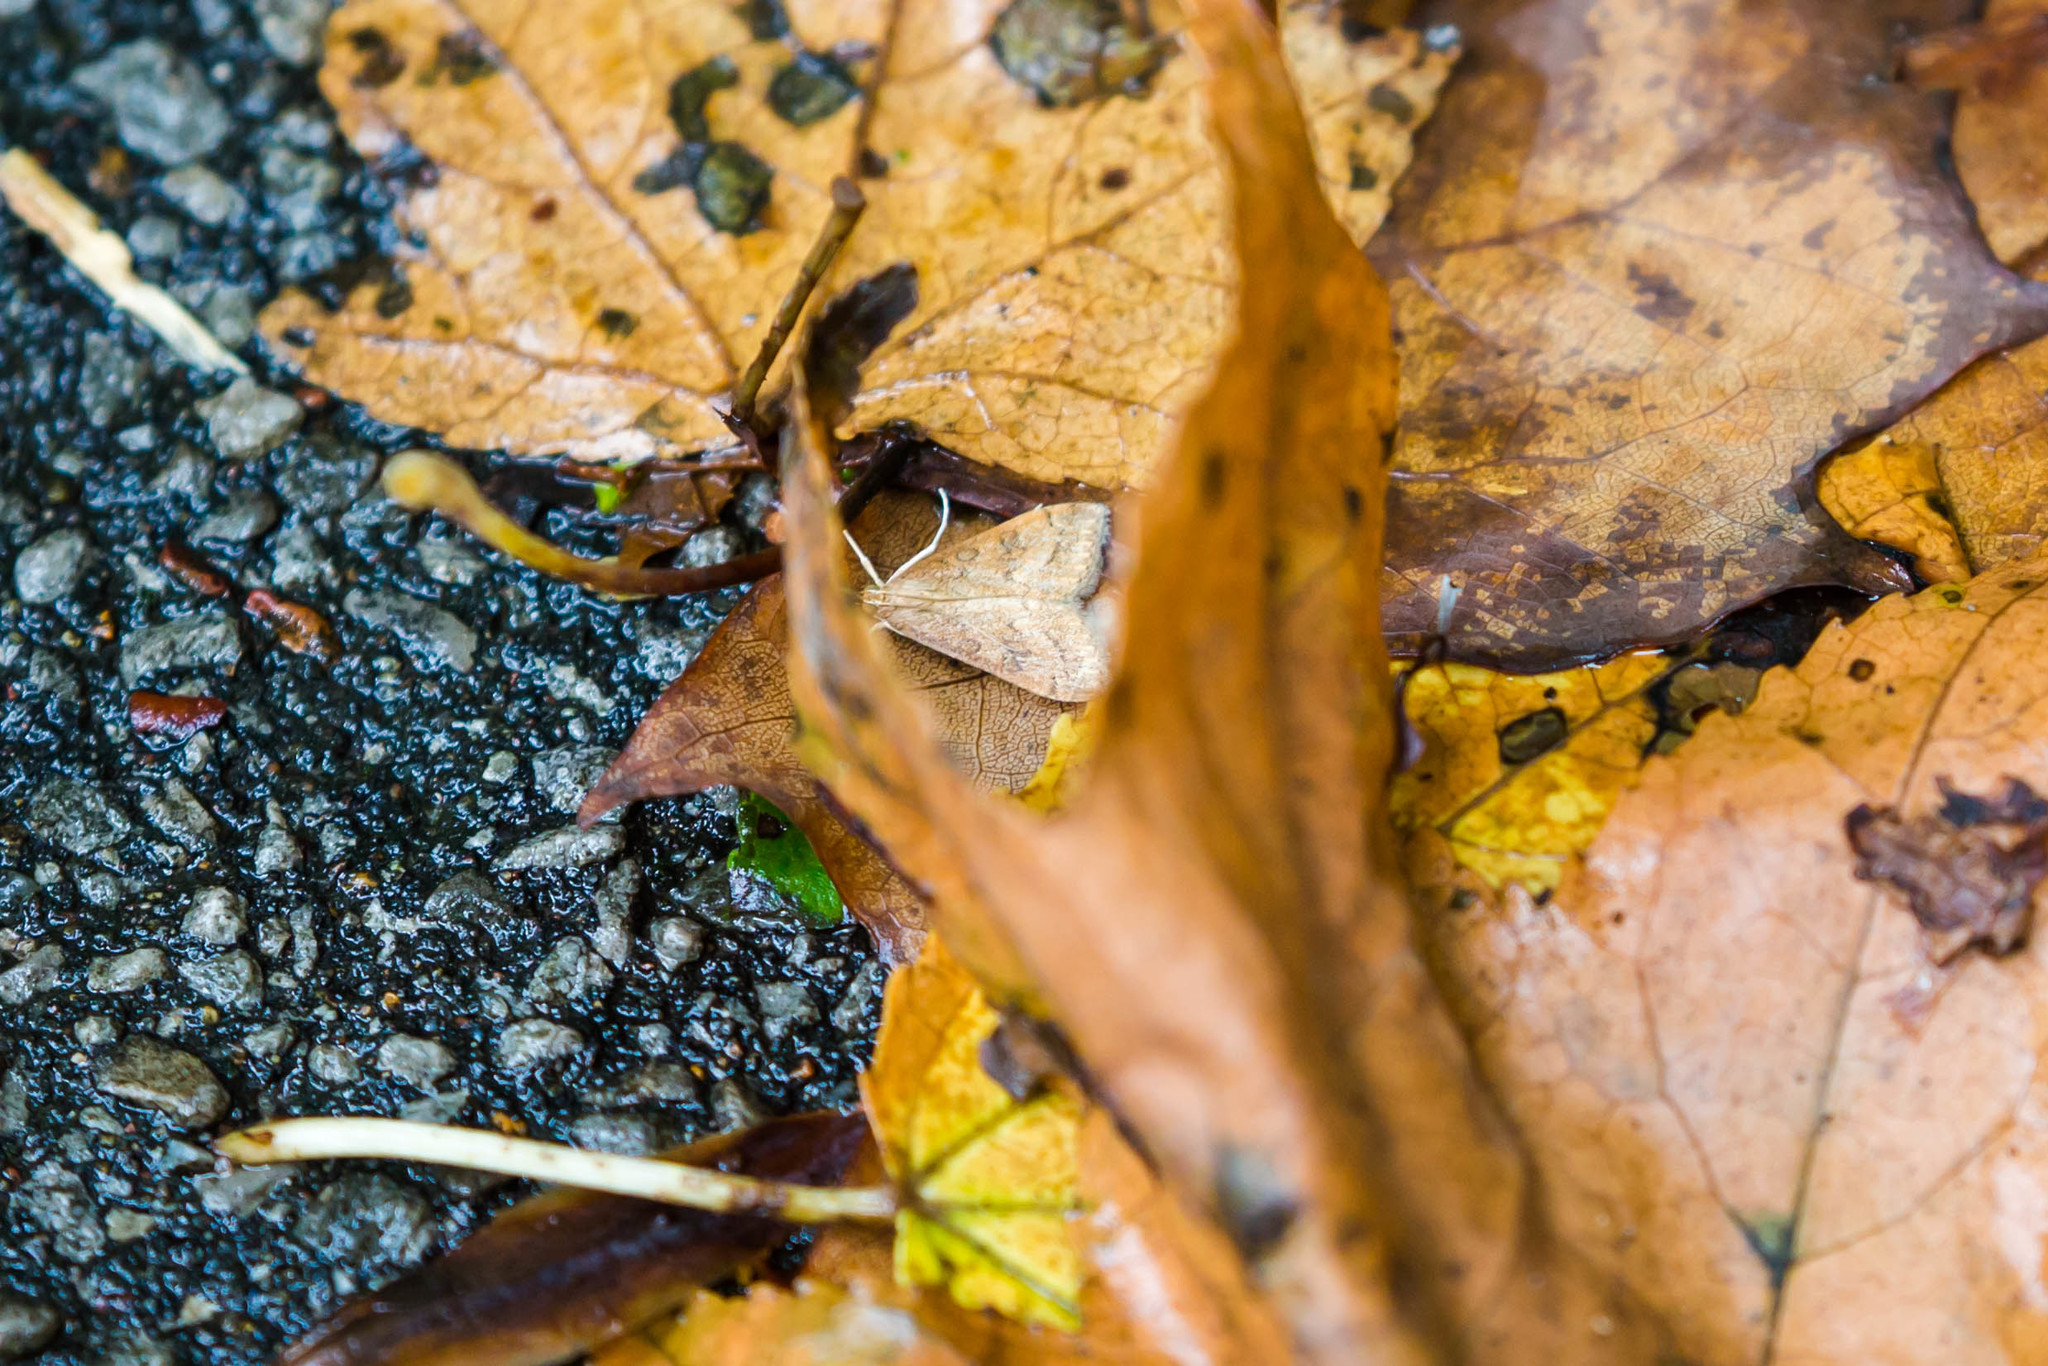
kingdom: Animalia
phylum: Arthropoda
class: Insecta
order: Lepidoptera
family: Crambidae
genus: Udea
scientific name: Udea rubigalis
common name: Celery leaftier moth
